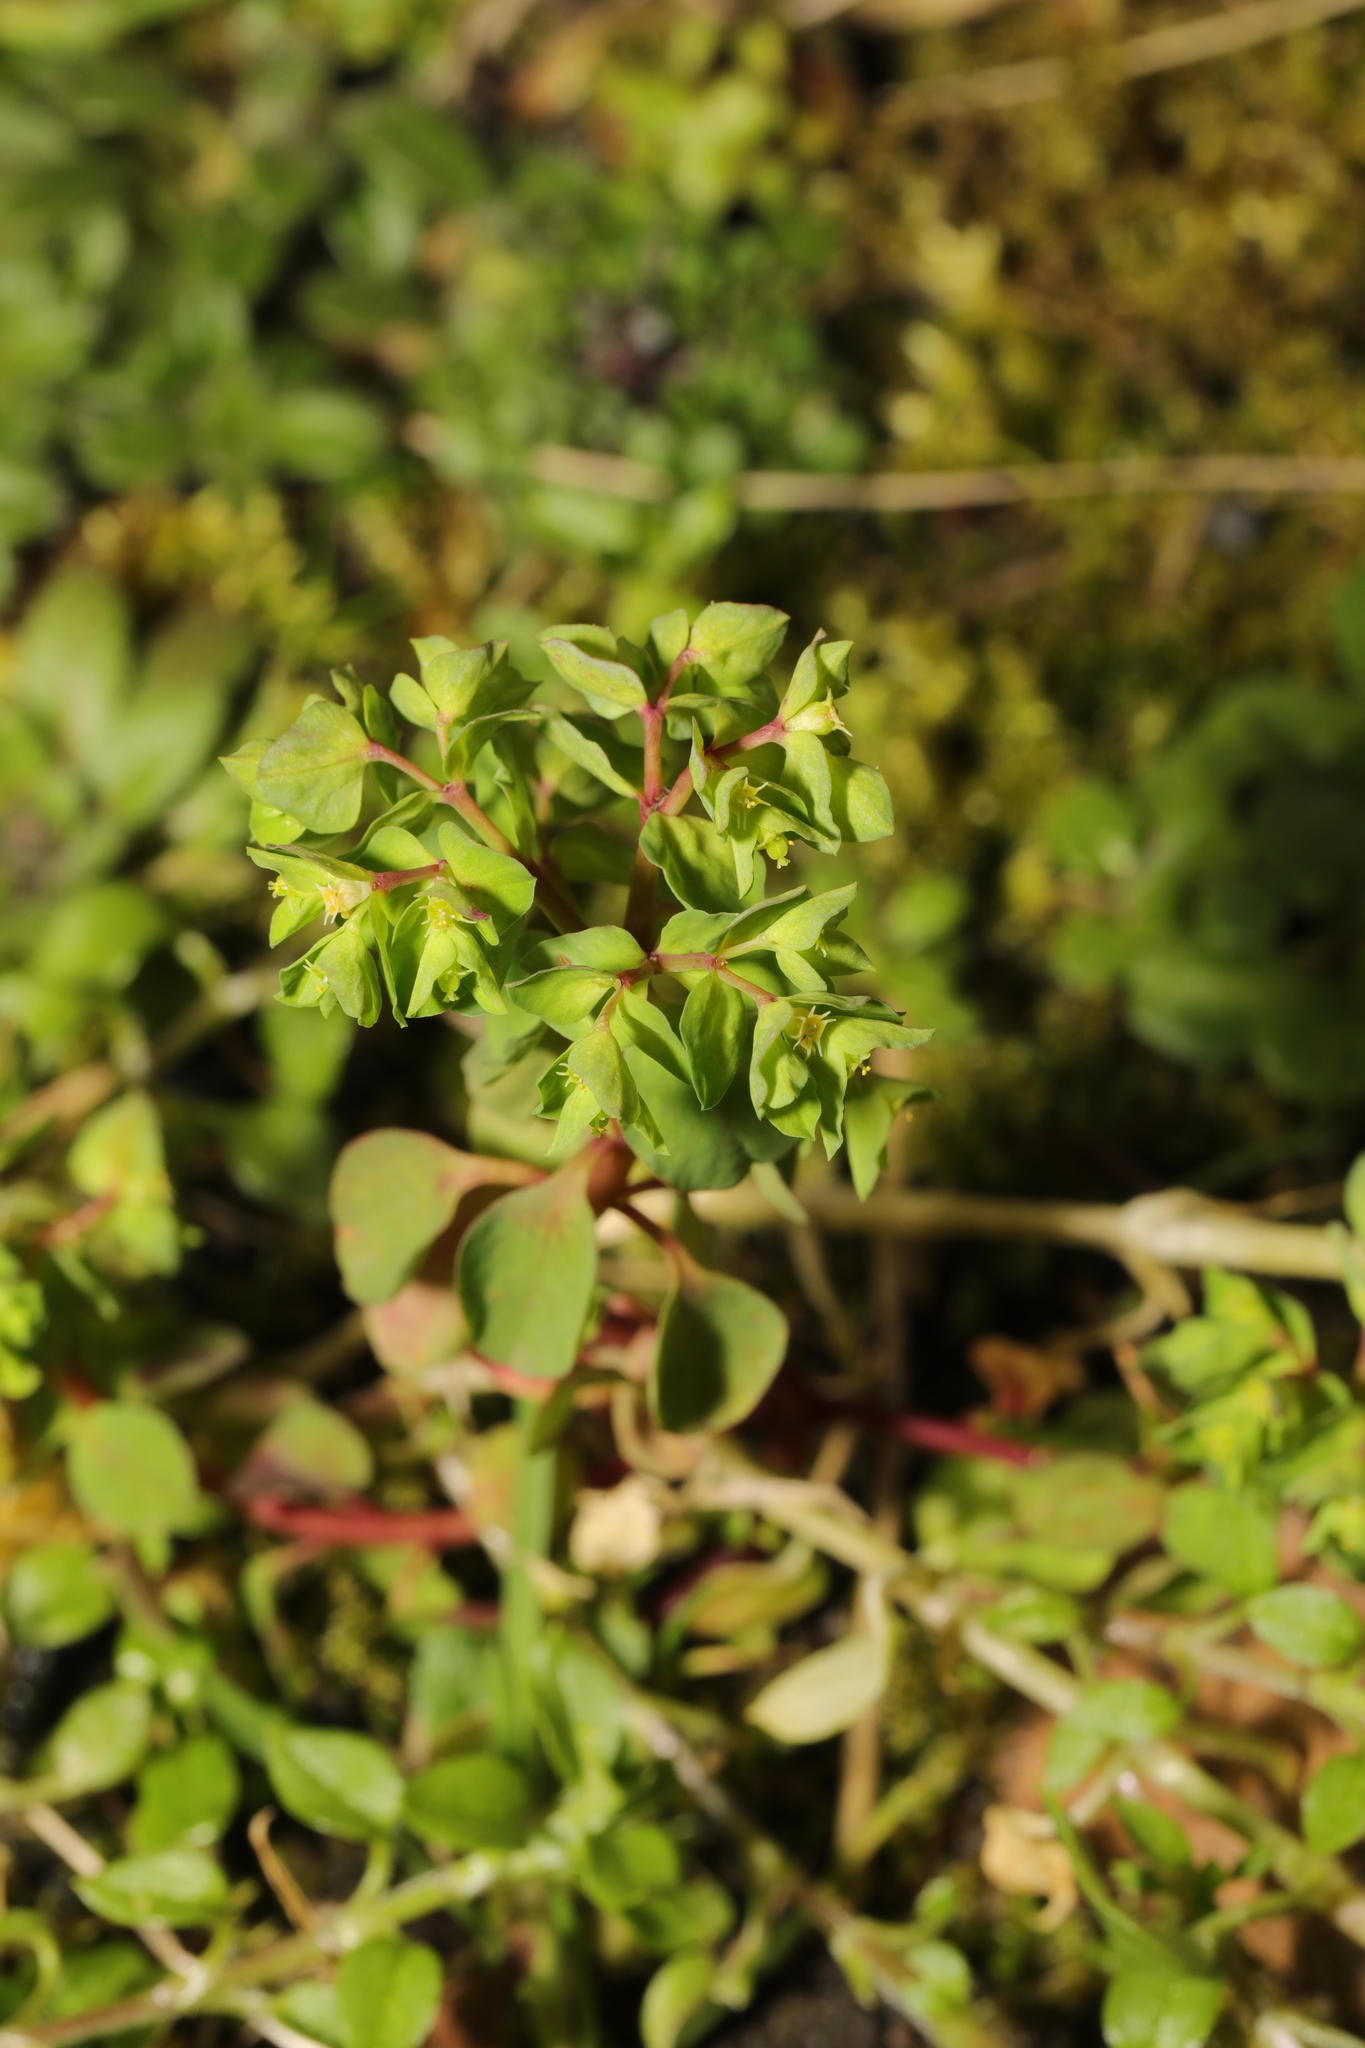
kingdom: Plantae
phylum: Tracheophyta
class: Magnoliopsida
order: Malpighiales
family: Euphorbiaceae
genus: Euphorbia
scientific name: Euphorbia peplus
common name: Petty spurge
